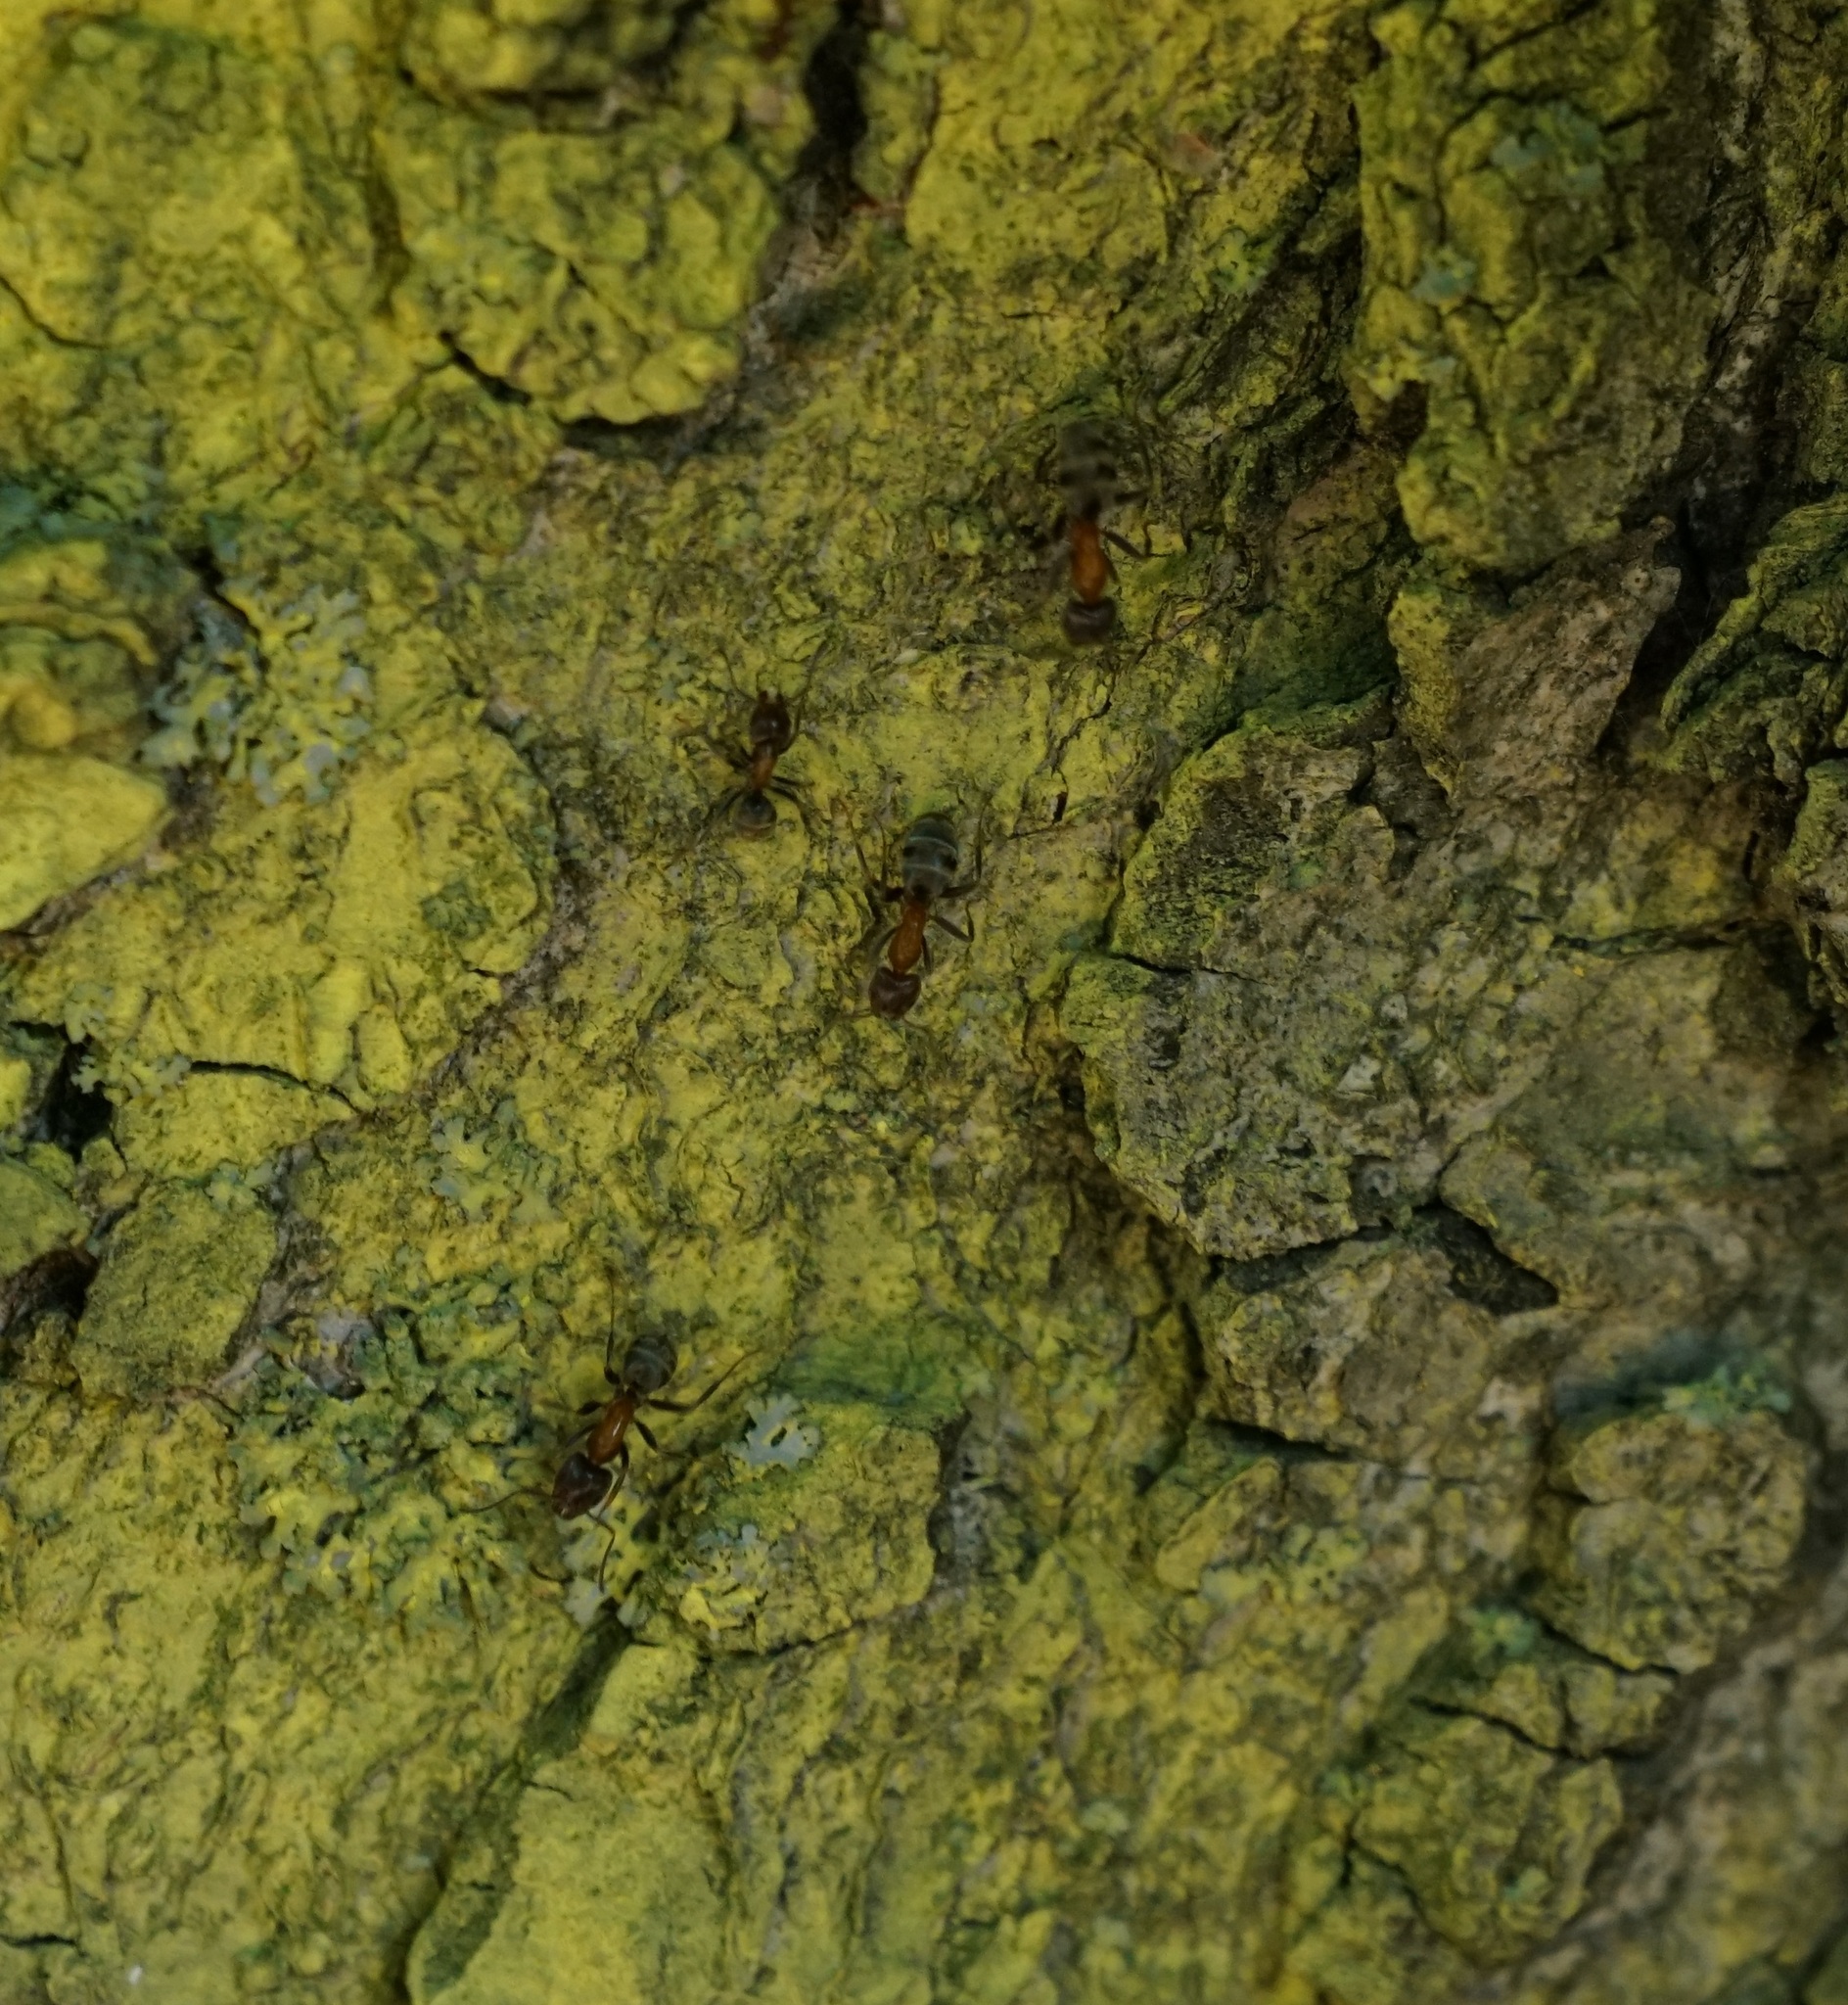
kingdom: Animalia
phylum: Arthropoda
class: Insecta
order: Hymenoptera
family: Formicidae
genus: Liometopum
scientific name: Liometopum microcephalum
